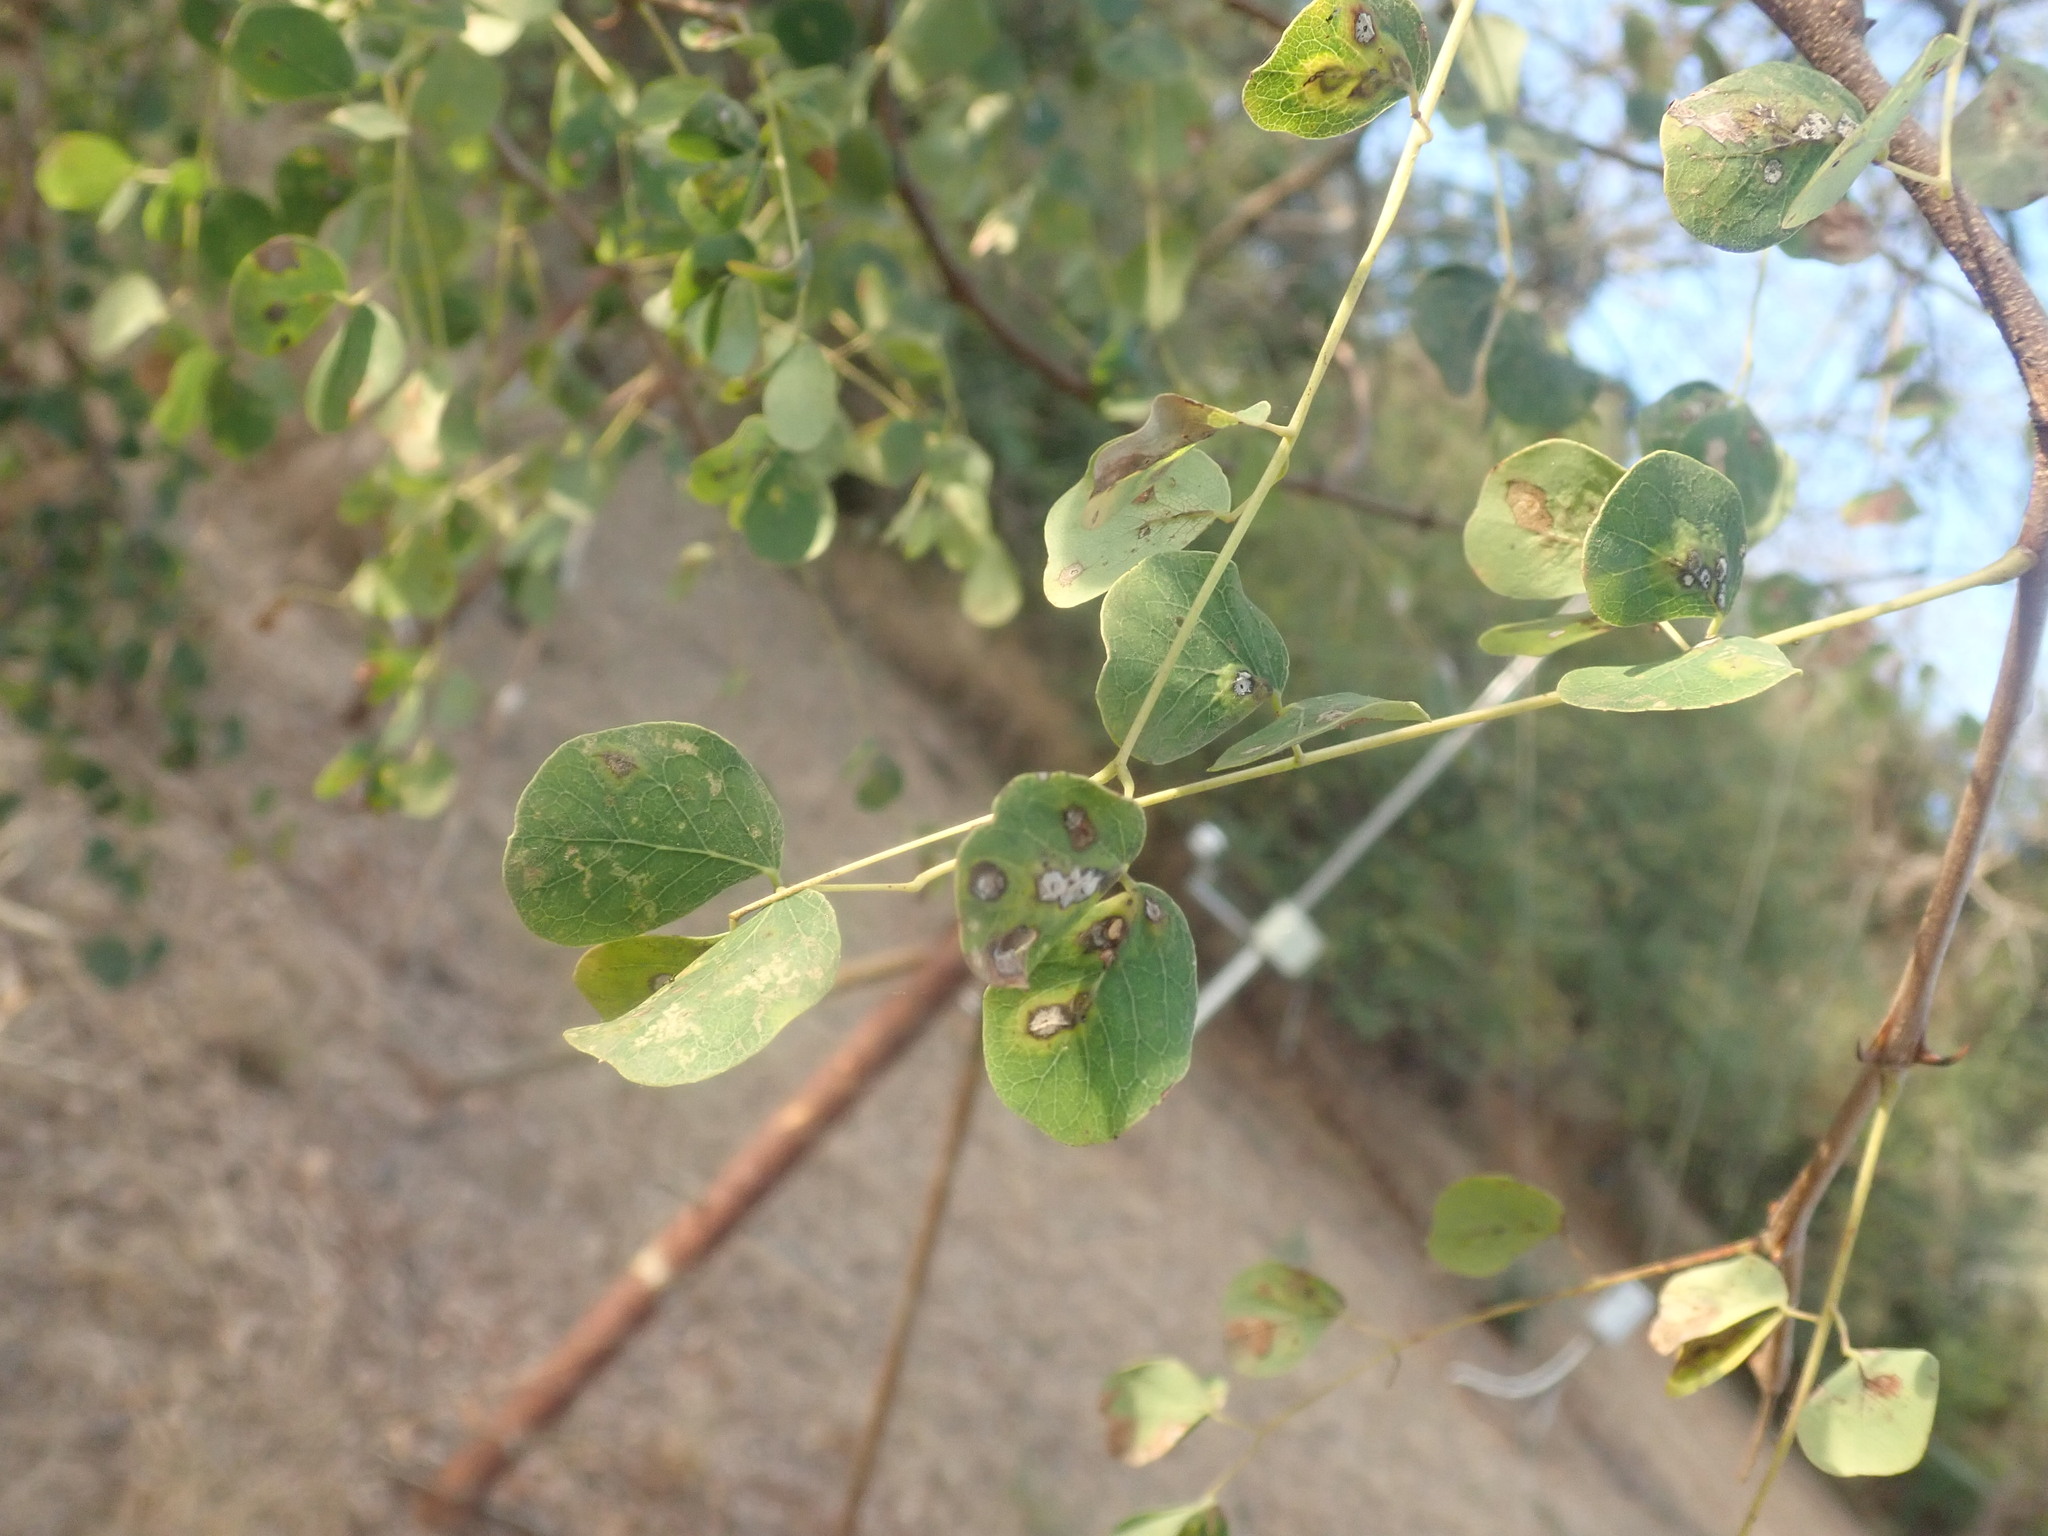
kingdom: Plantae
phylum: Tracheophyta
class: Magnoliopsida
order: Fabales
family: Fabaceae
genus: Senegalia
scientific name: Senegalia nigrescens
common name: Knobthorn
